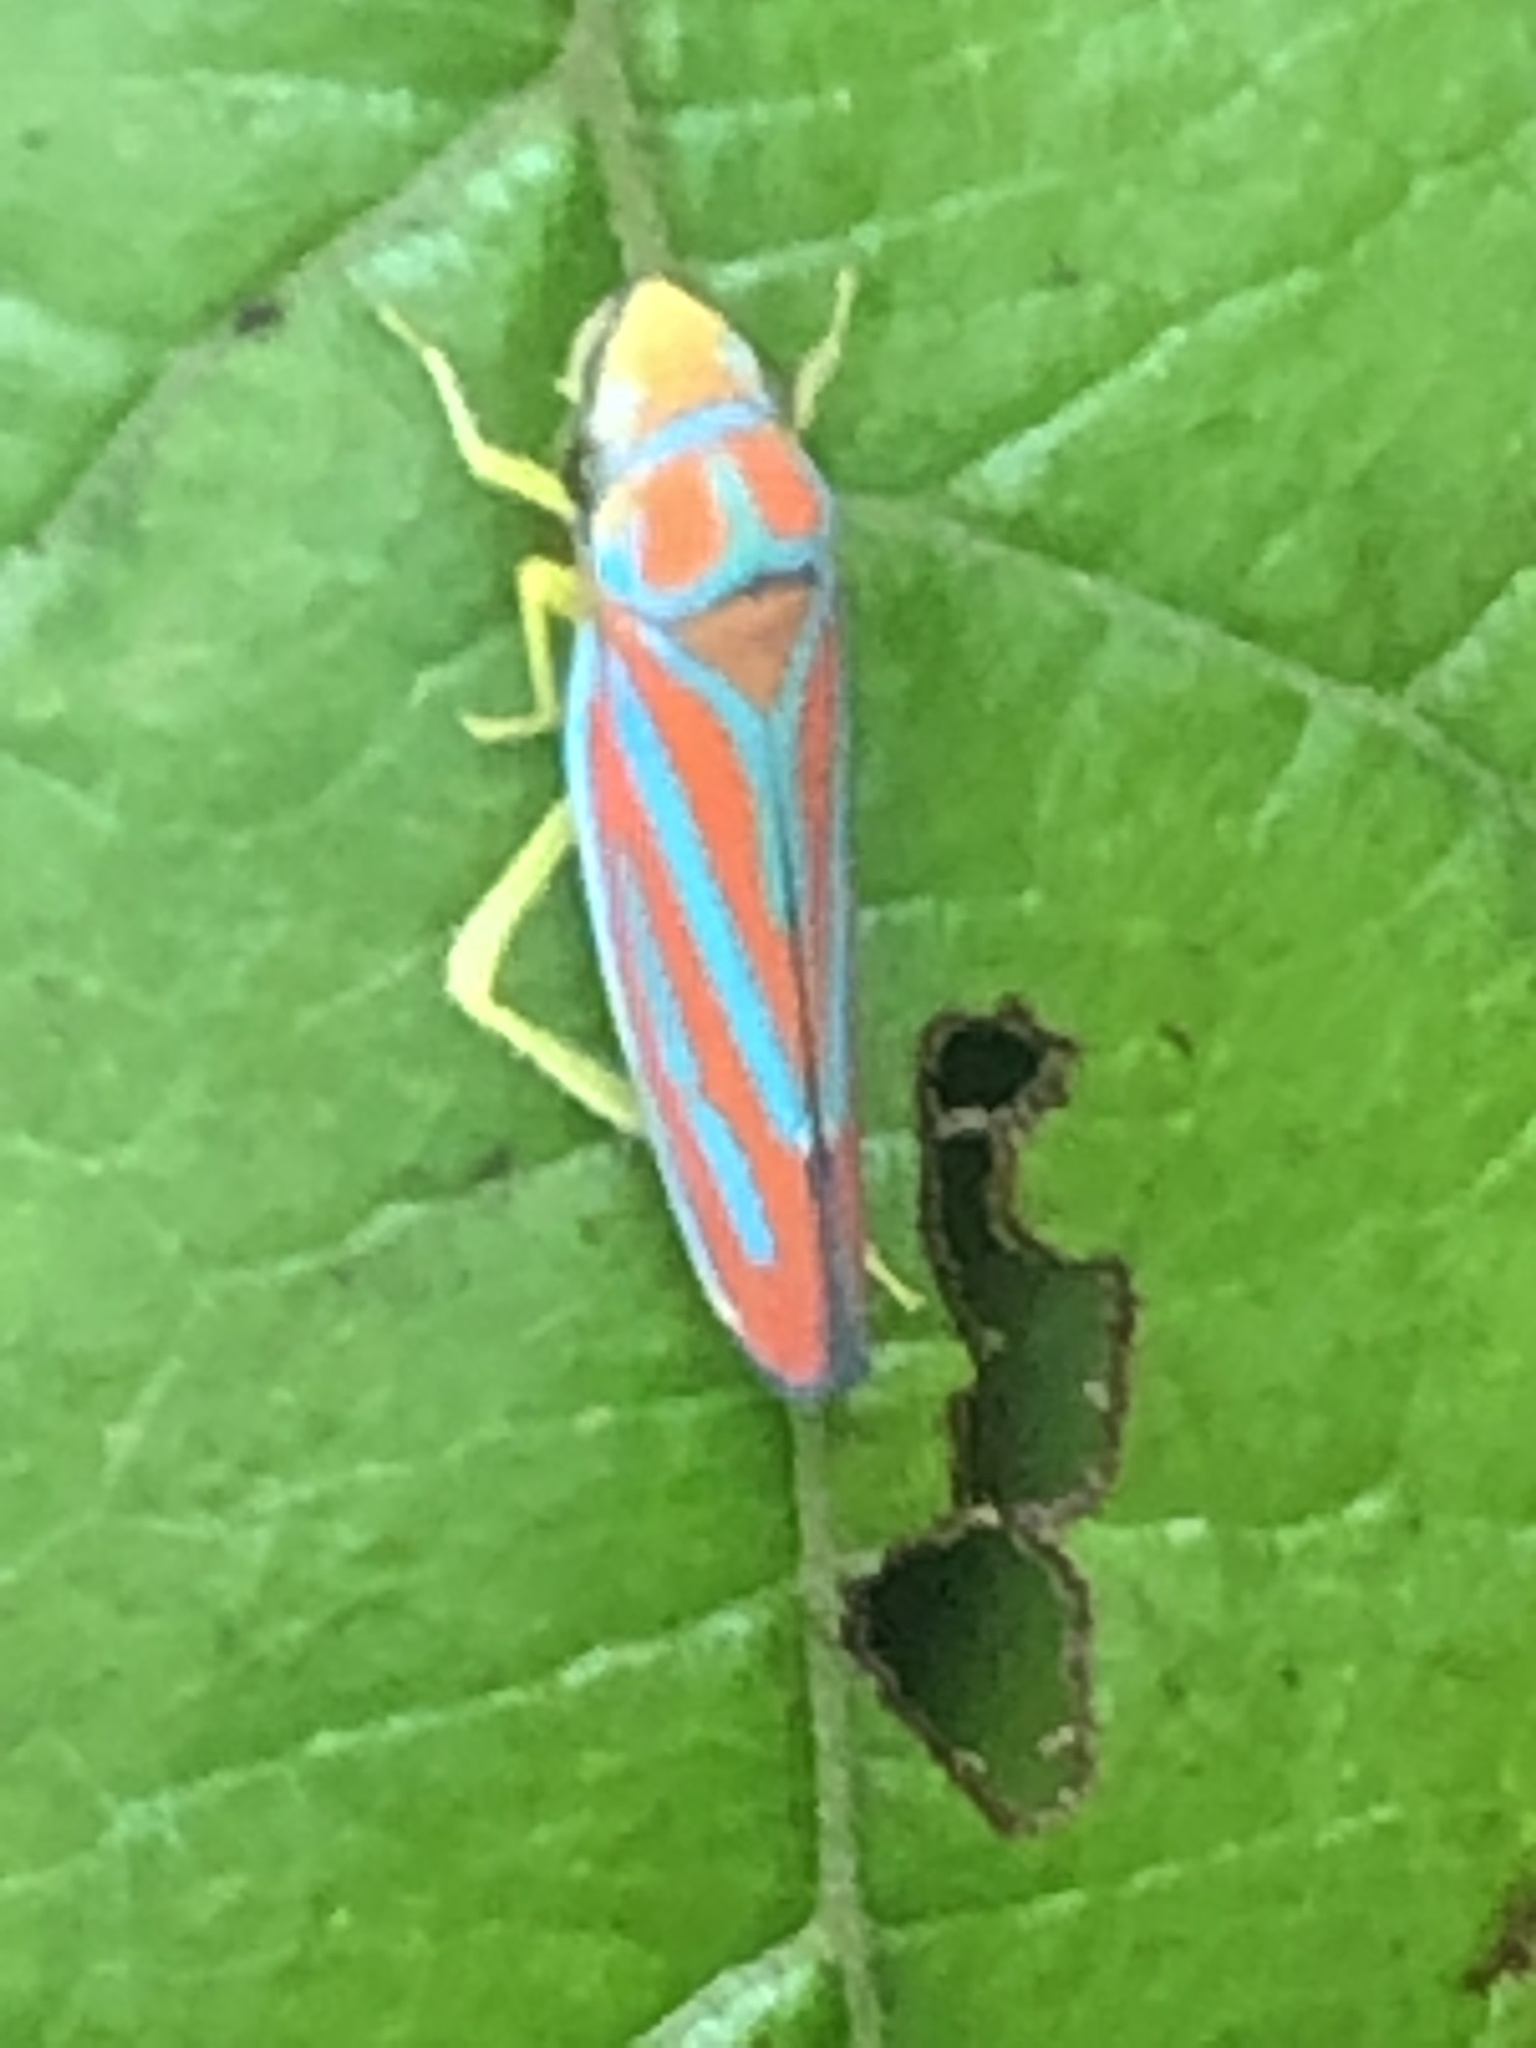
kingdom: Animalia
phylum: Arthropoda
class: Insecta
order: Hemiptera
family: Cicadellidae
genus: Graphocephala
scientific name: Graphocephala coccinea
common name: Candy-striped leafhopper
